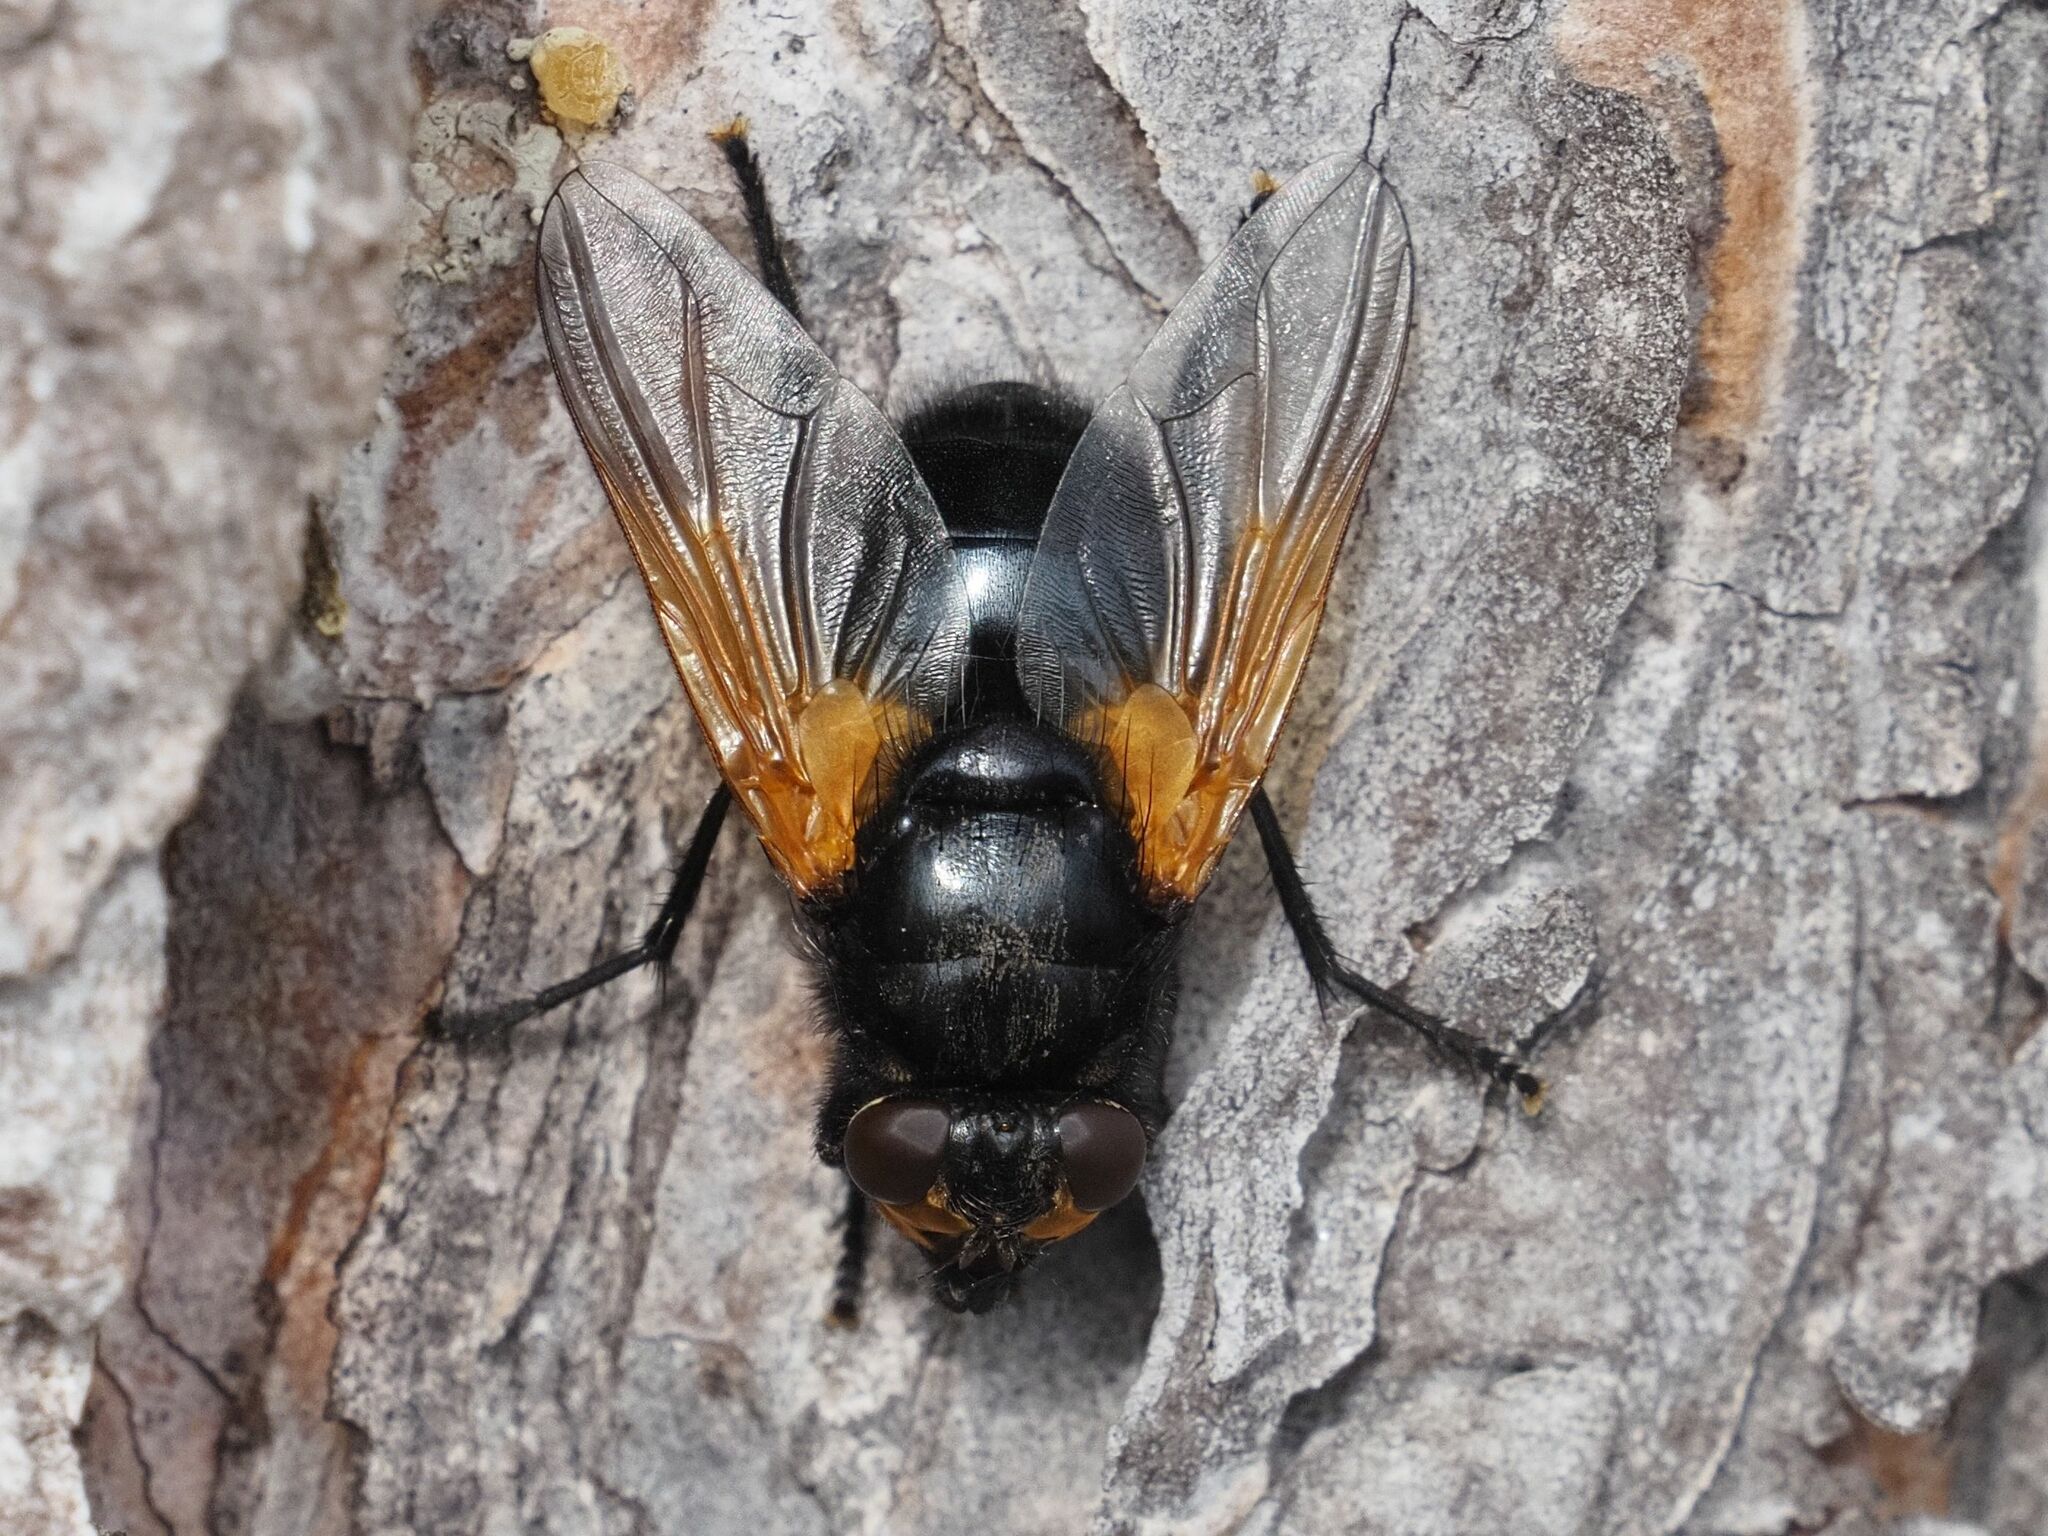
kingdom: Animalia
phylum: Arthropoda
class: Insecta
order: Diptera
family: Muscidae
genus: Mesembrina
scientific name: Mesembrina meridiana
